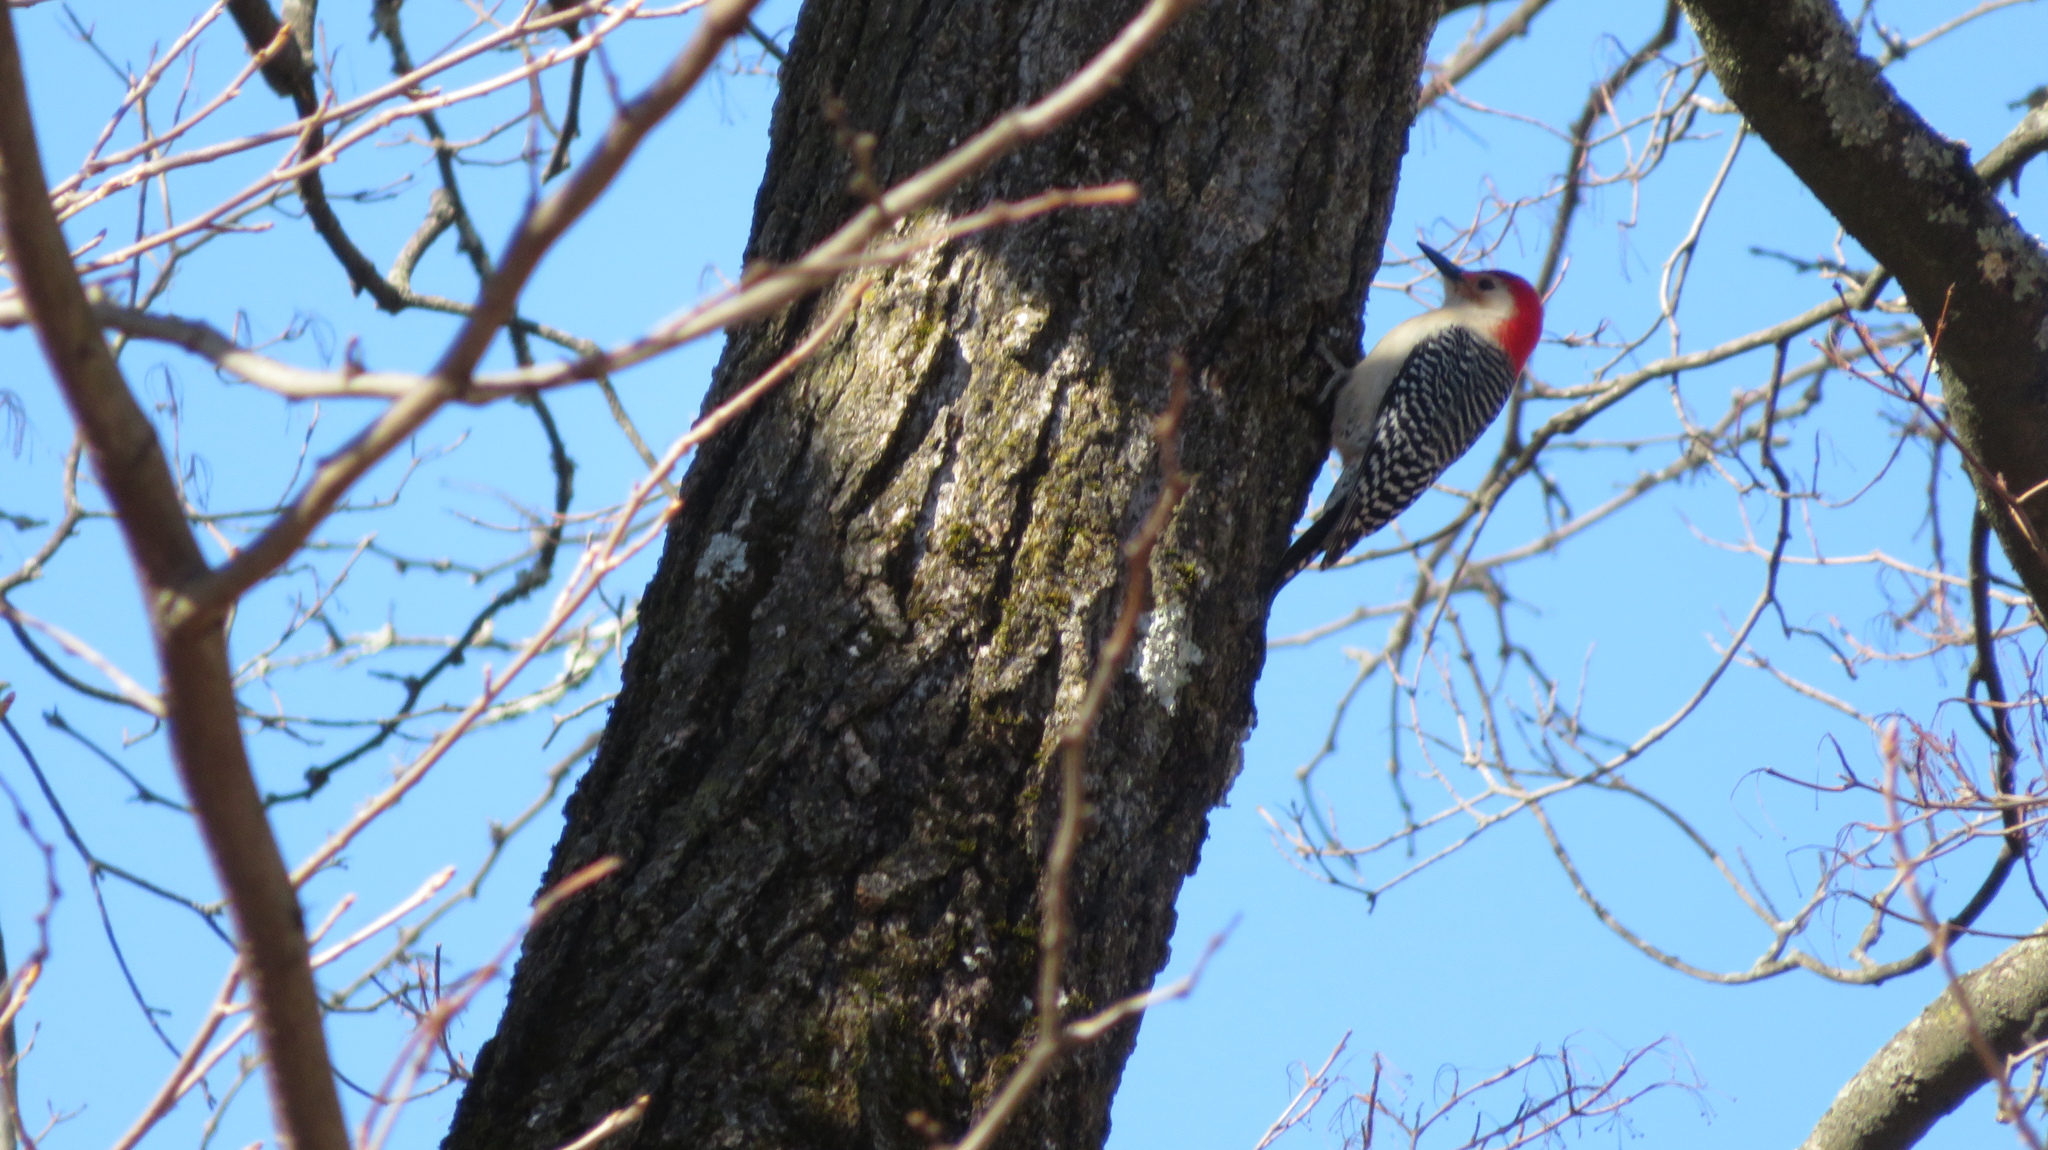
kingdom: Animalia
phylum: Chordata
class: Aves
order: Piciformes
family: Picidae
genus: Melanerpes
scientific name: Melanerpes carolinus
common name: Red-bellied woodpecker
